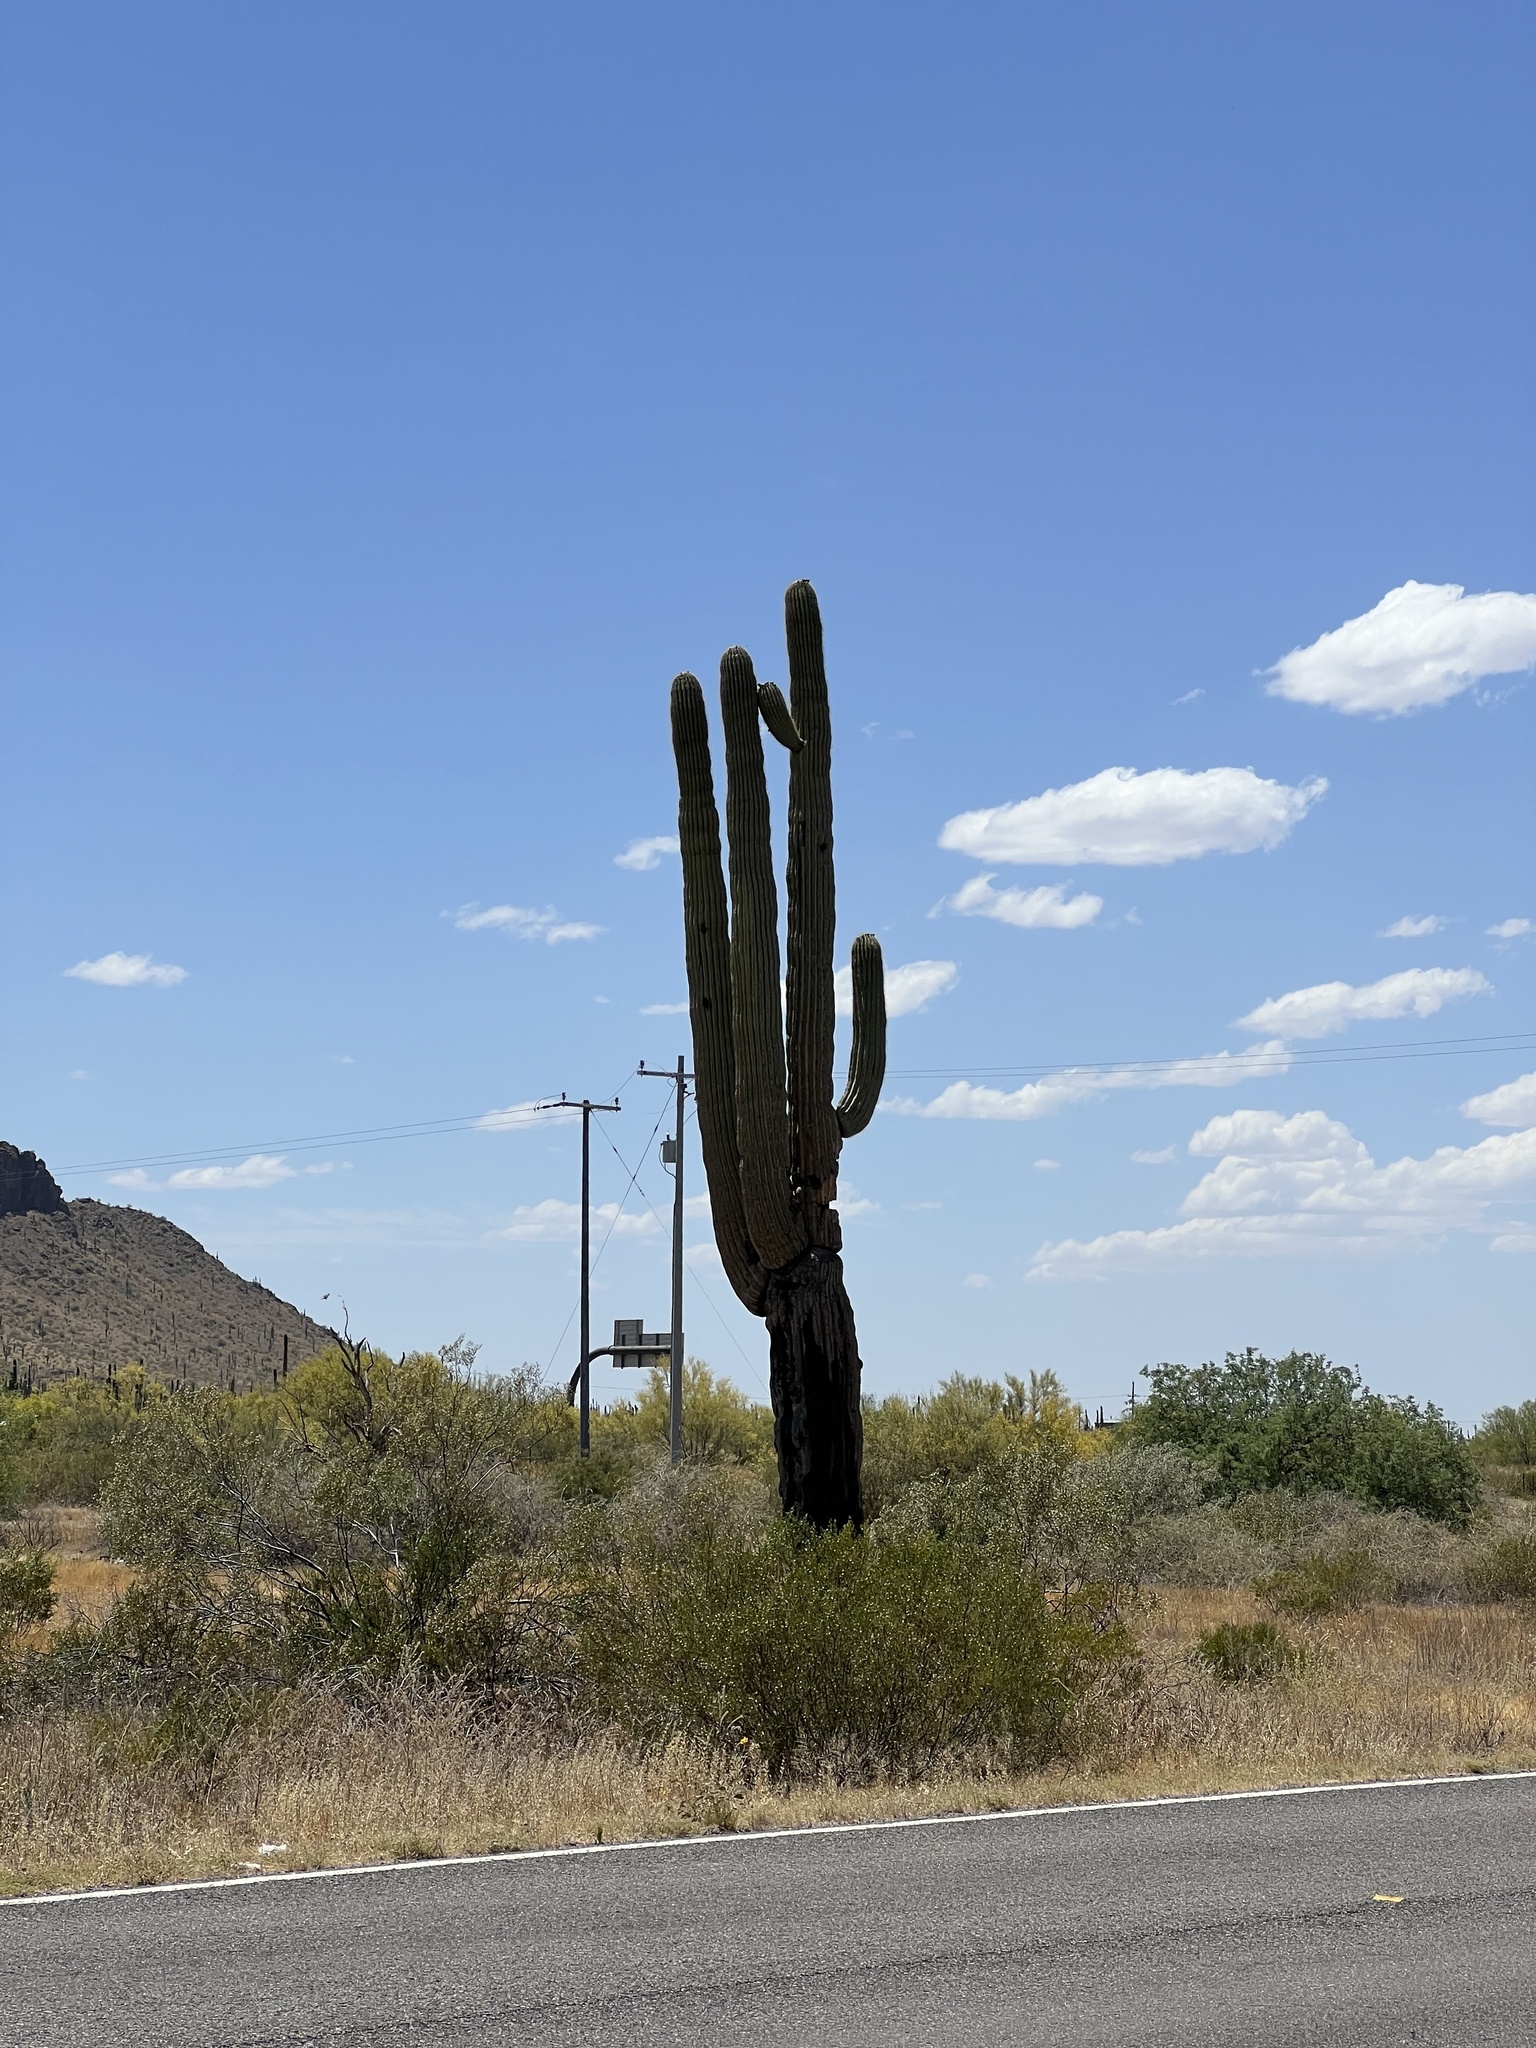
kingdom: Plantae
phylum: Tracheophyta
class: Magnoliopsida
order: Caryophyllales
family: Cactaceae
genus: Carnegiea
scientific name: Carnegiea gigantea
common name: Saguaro
